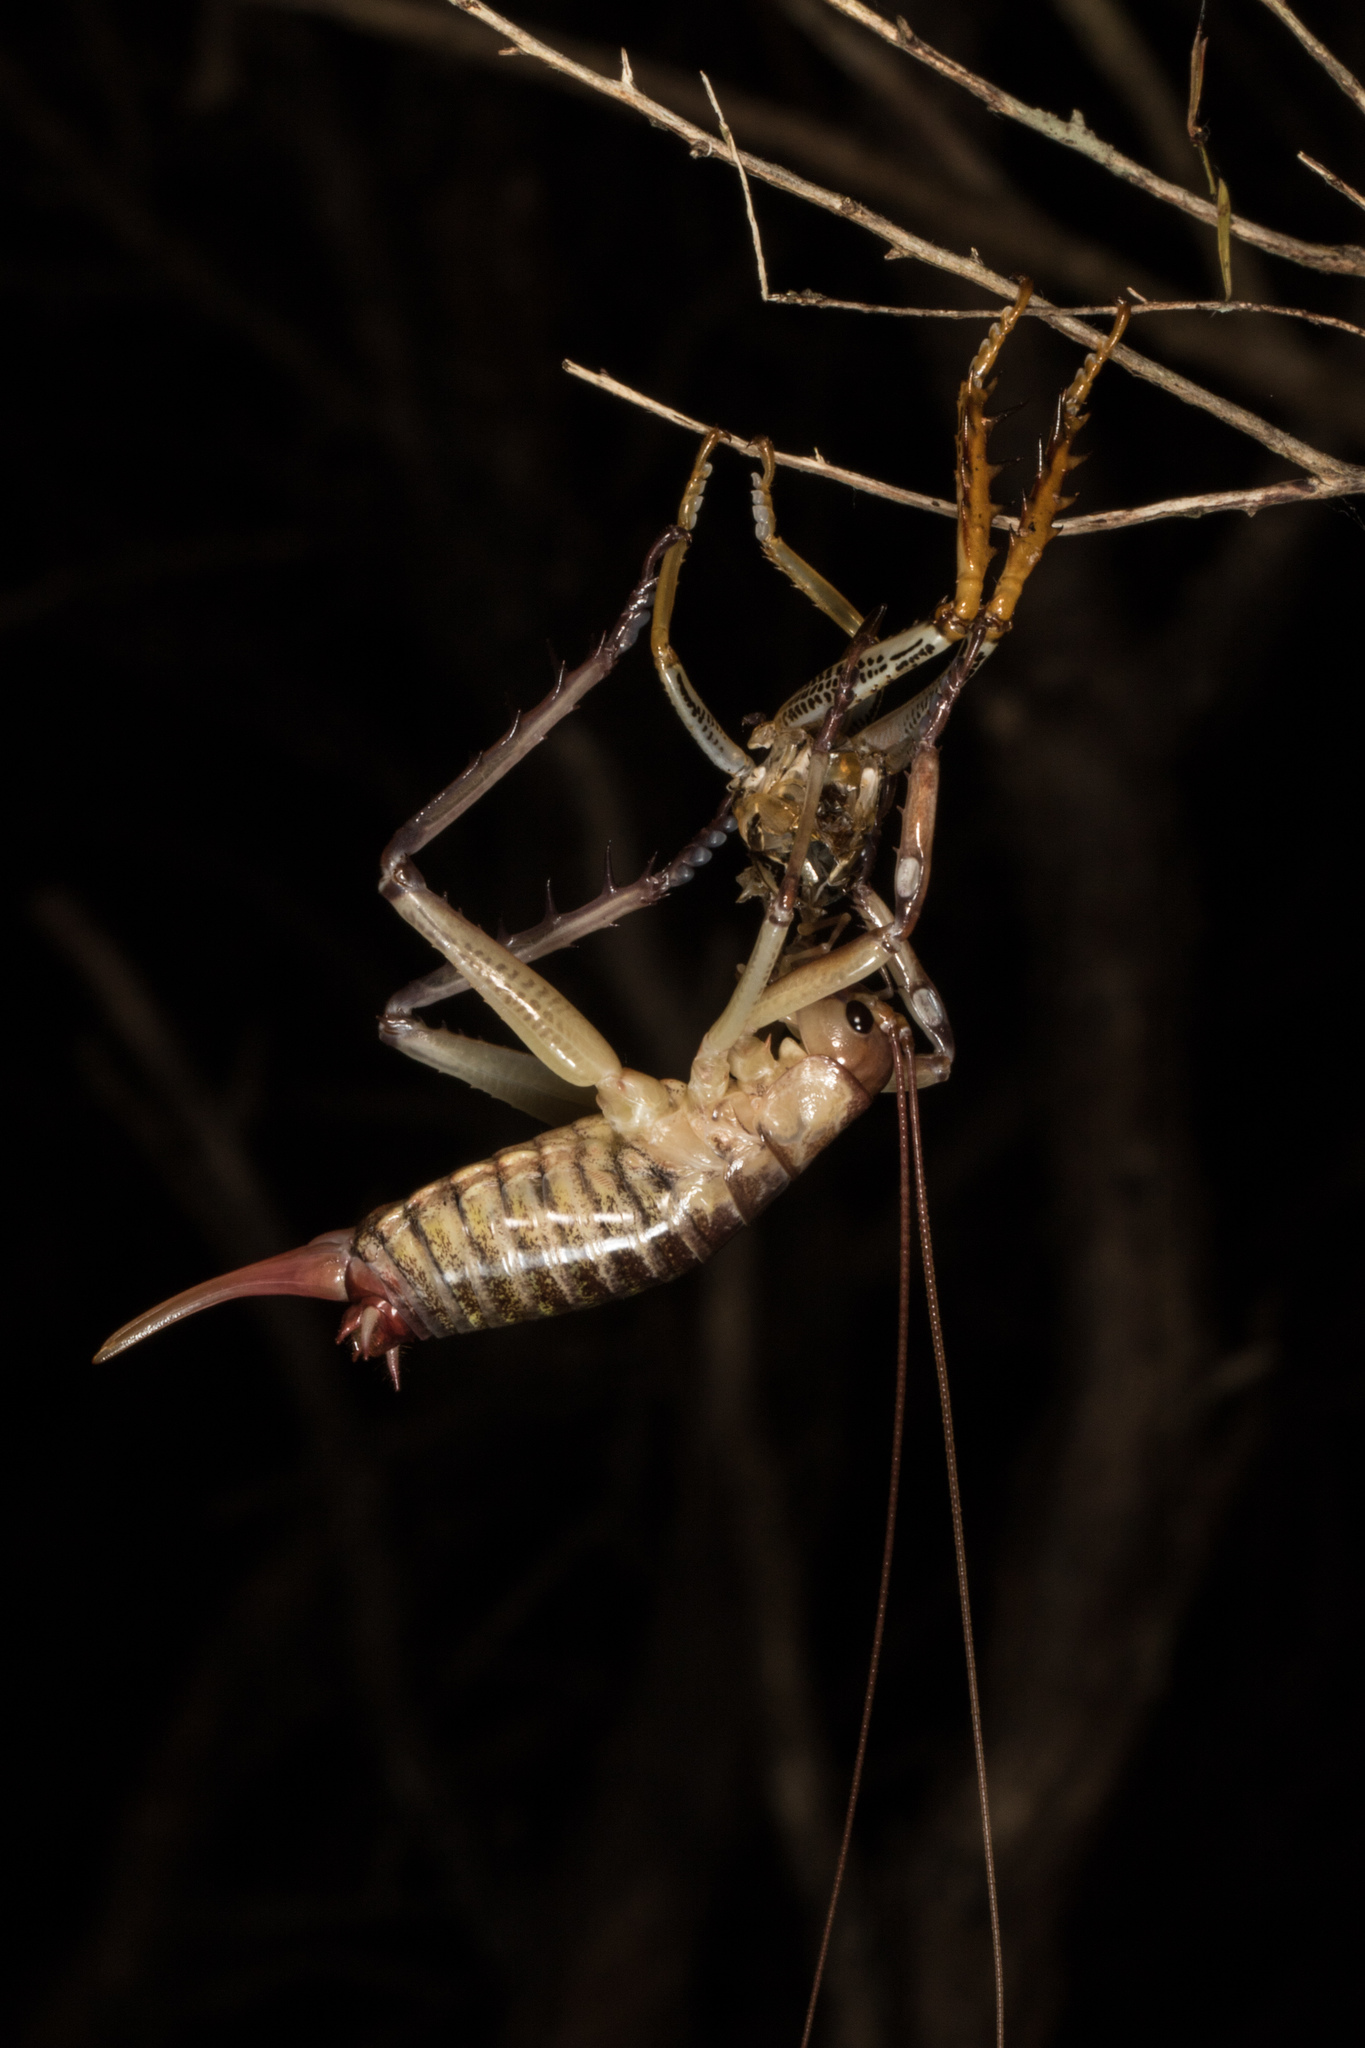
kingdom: Animalia
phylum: Arthropoda
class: Insecta
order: Orthoptera
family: Anostostomatidae
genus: Hemideina
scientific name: Hemideina thoracica
